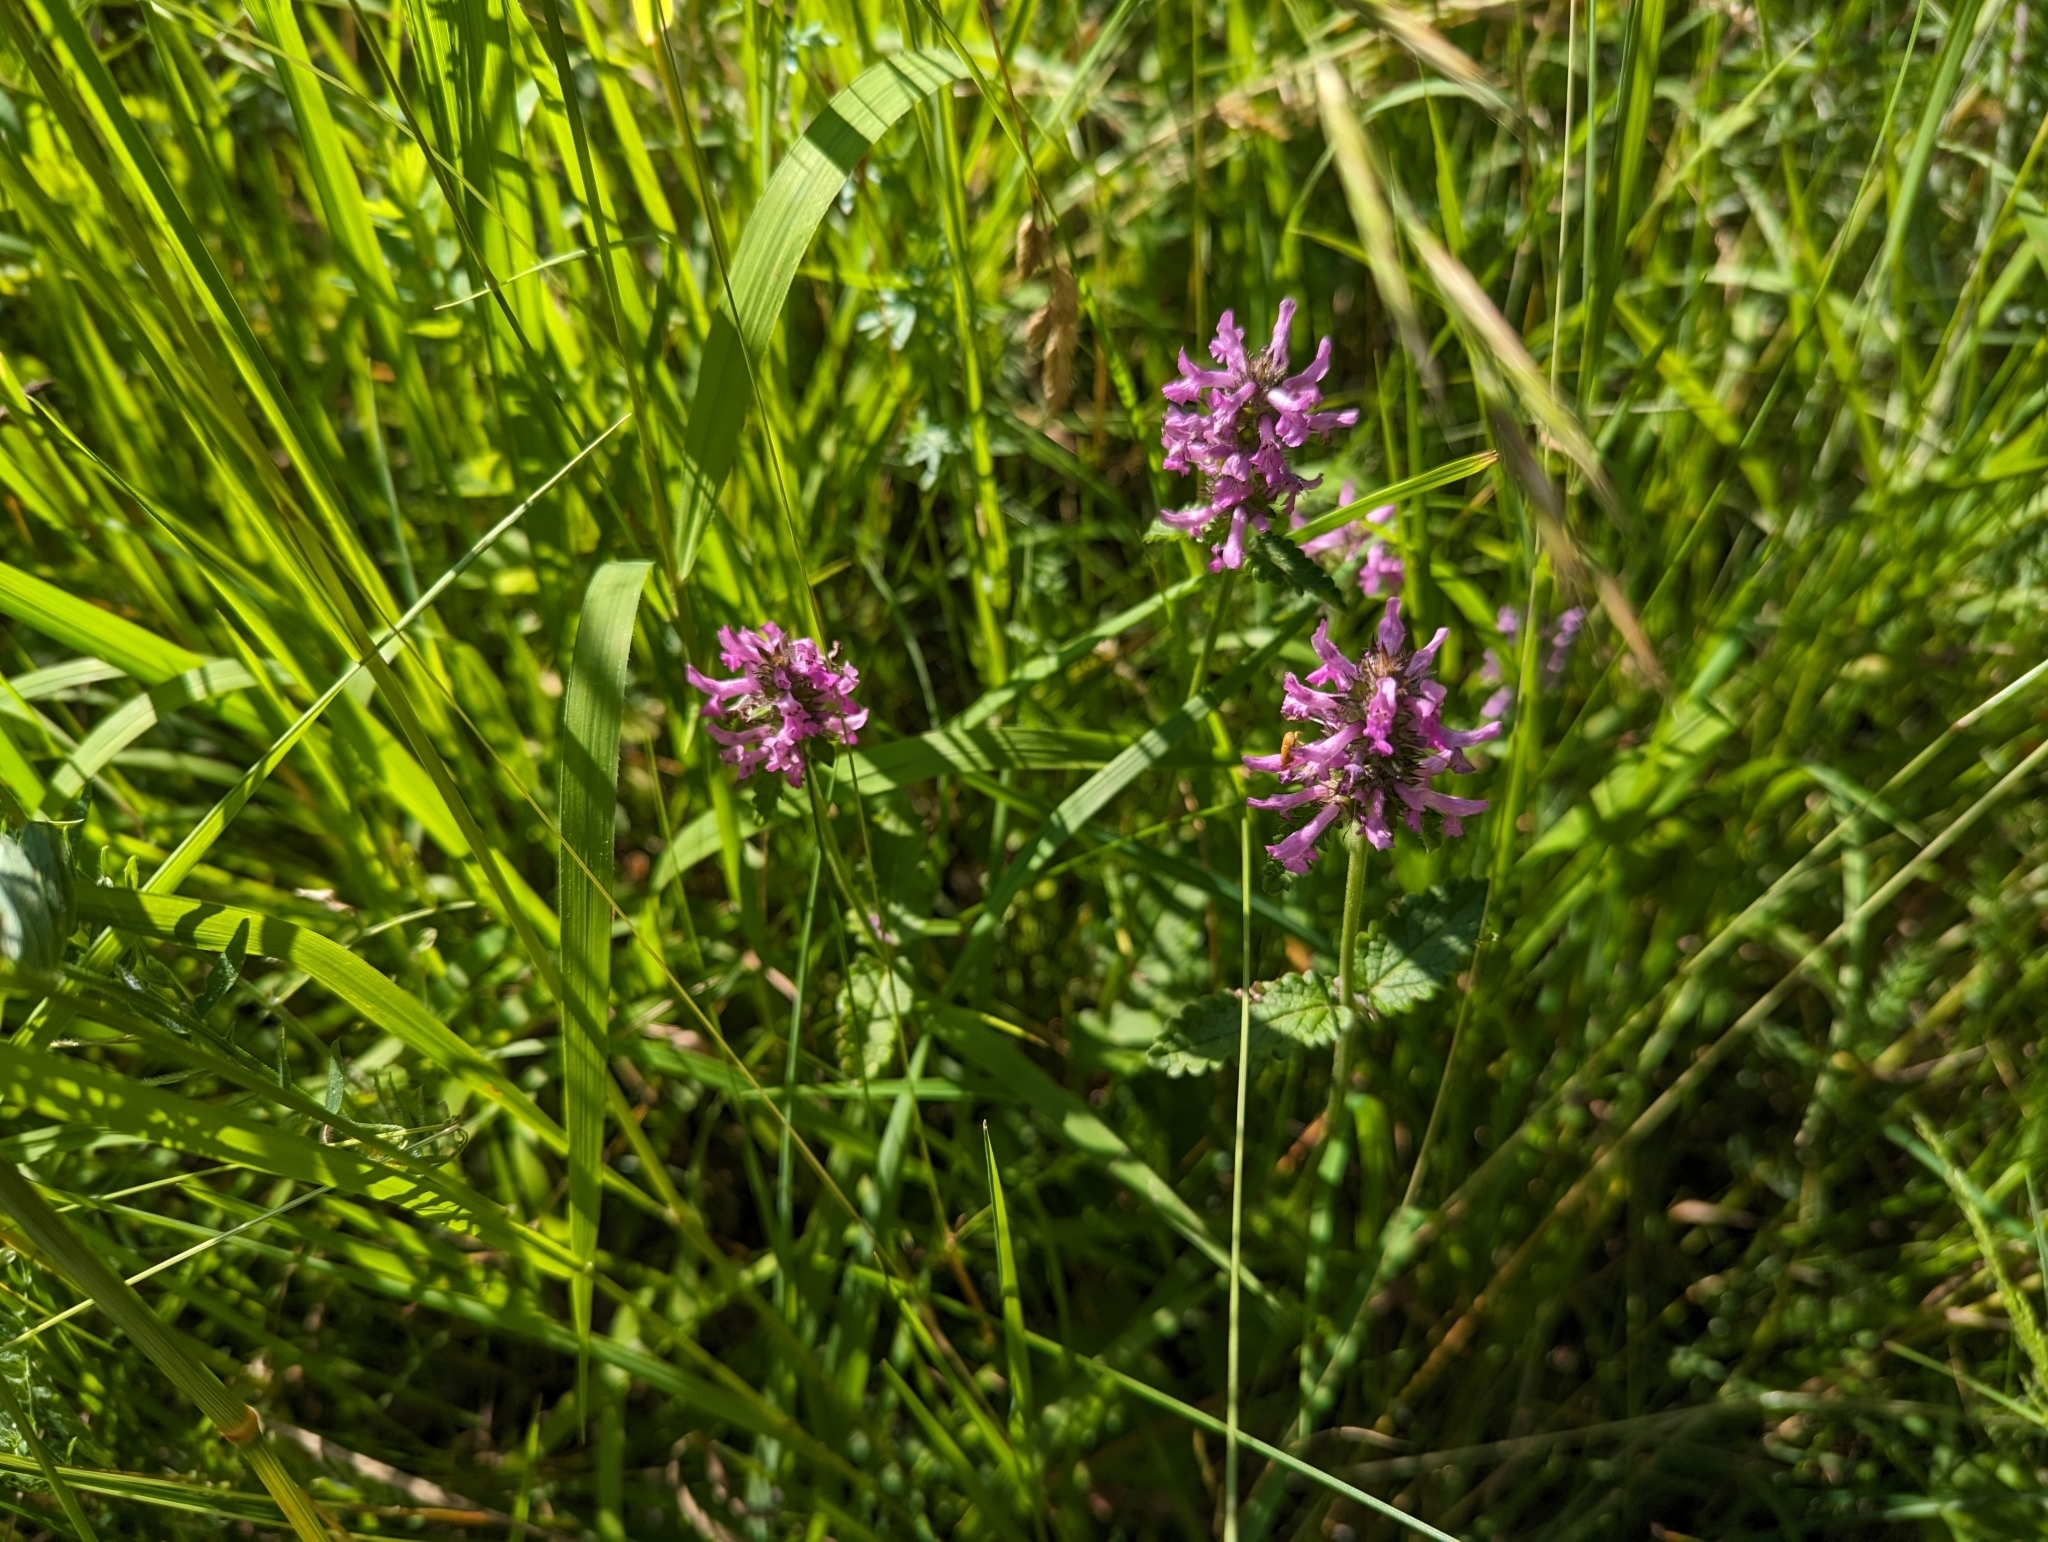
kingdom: Plantae
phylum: Tracheophyta
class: Magnoliopsida
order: Lamiales
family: Lamiaceae
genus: Betonica
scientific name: Betonica officinalis
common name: Bishop's-wort
